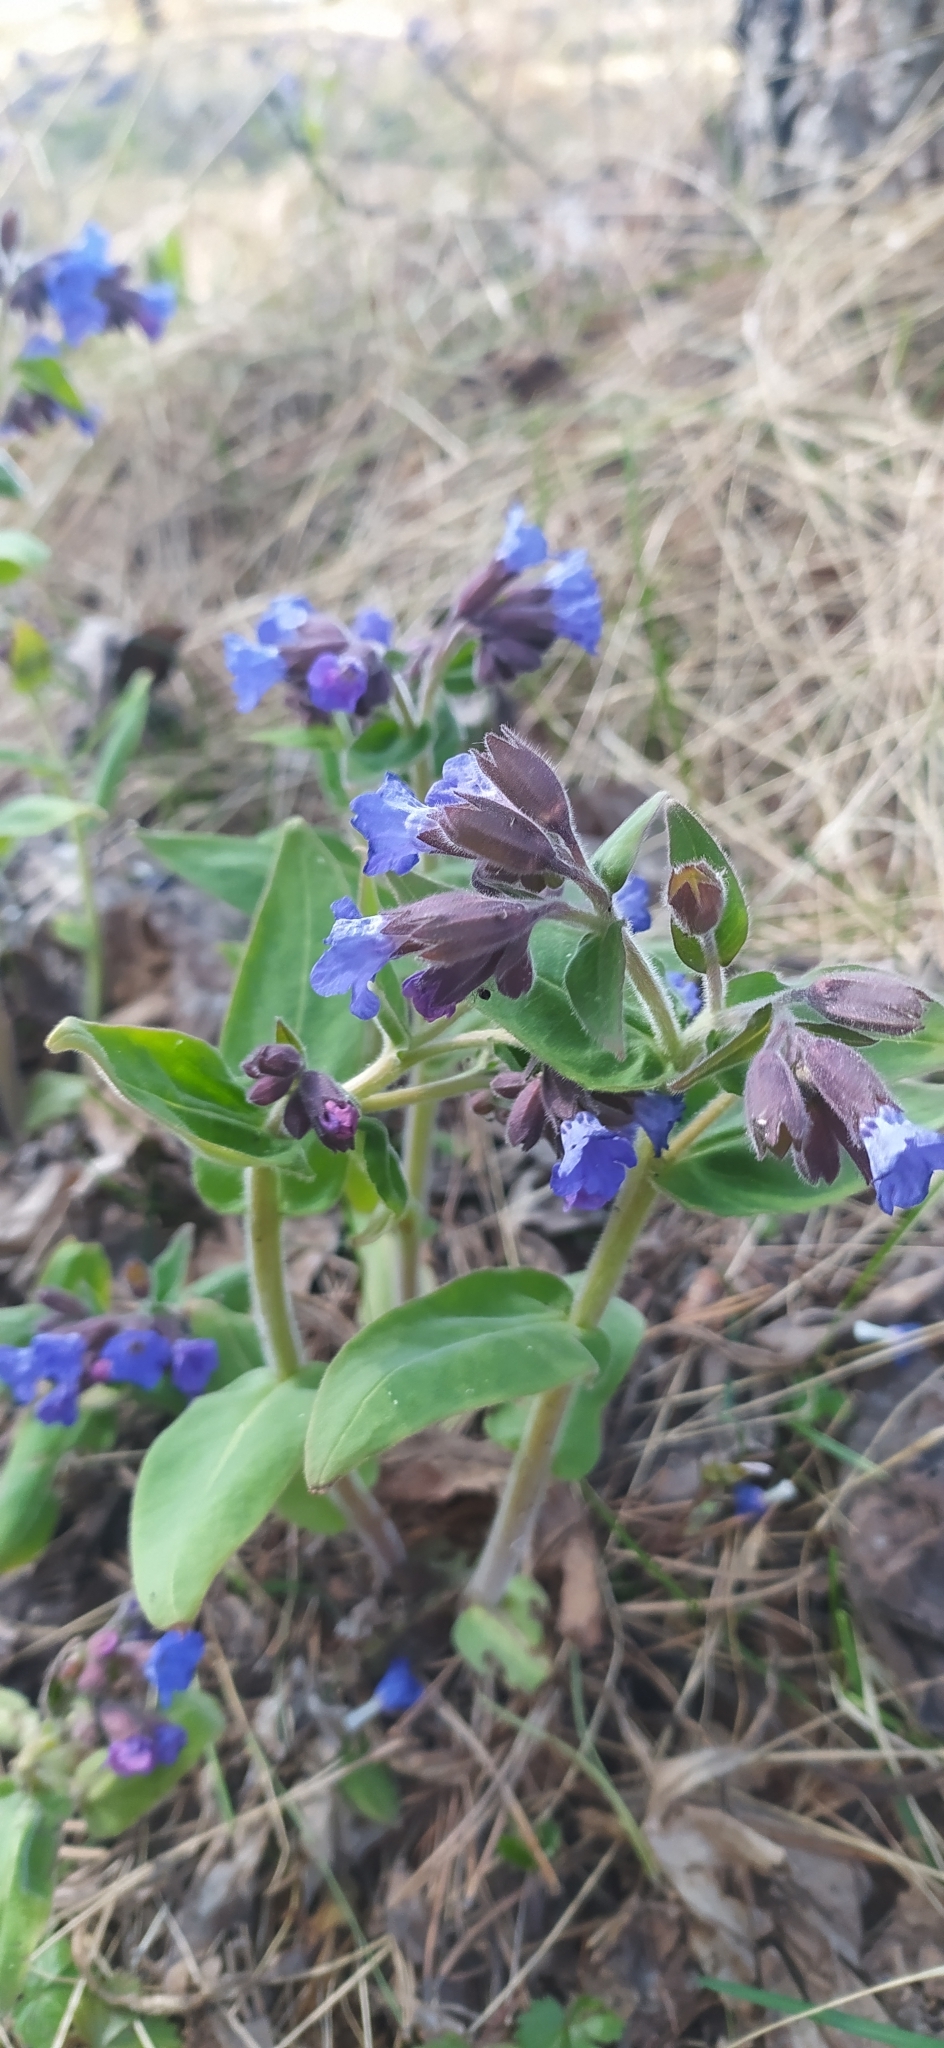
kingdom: Plantae
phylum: Tracheophyta
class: Magnoliopsida
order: Boraginales
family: Boraginaceae
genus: Pulmonaria
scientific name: Pulmonaria mollis
